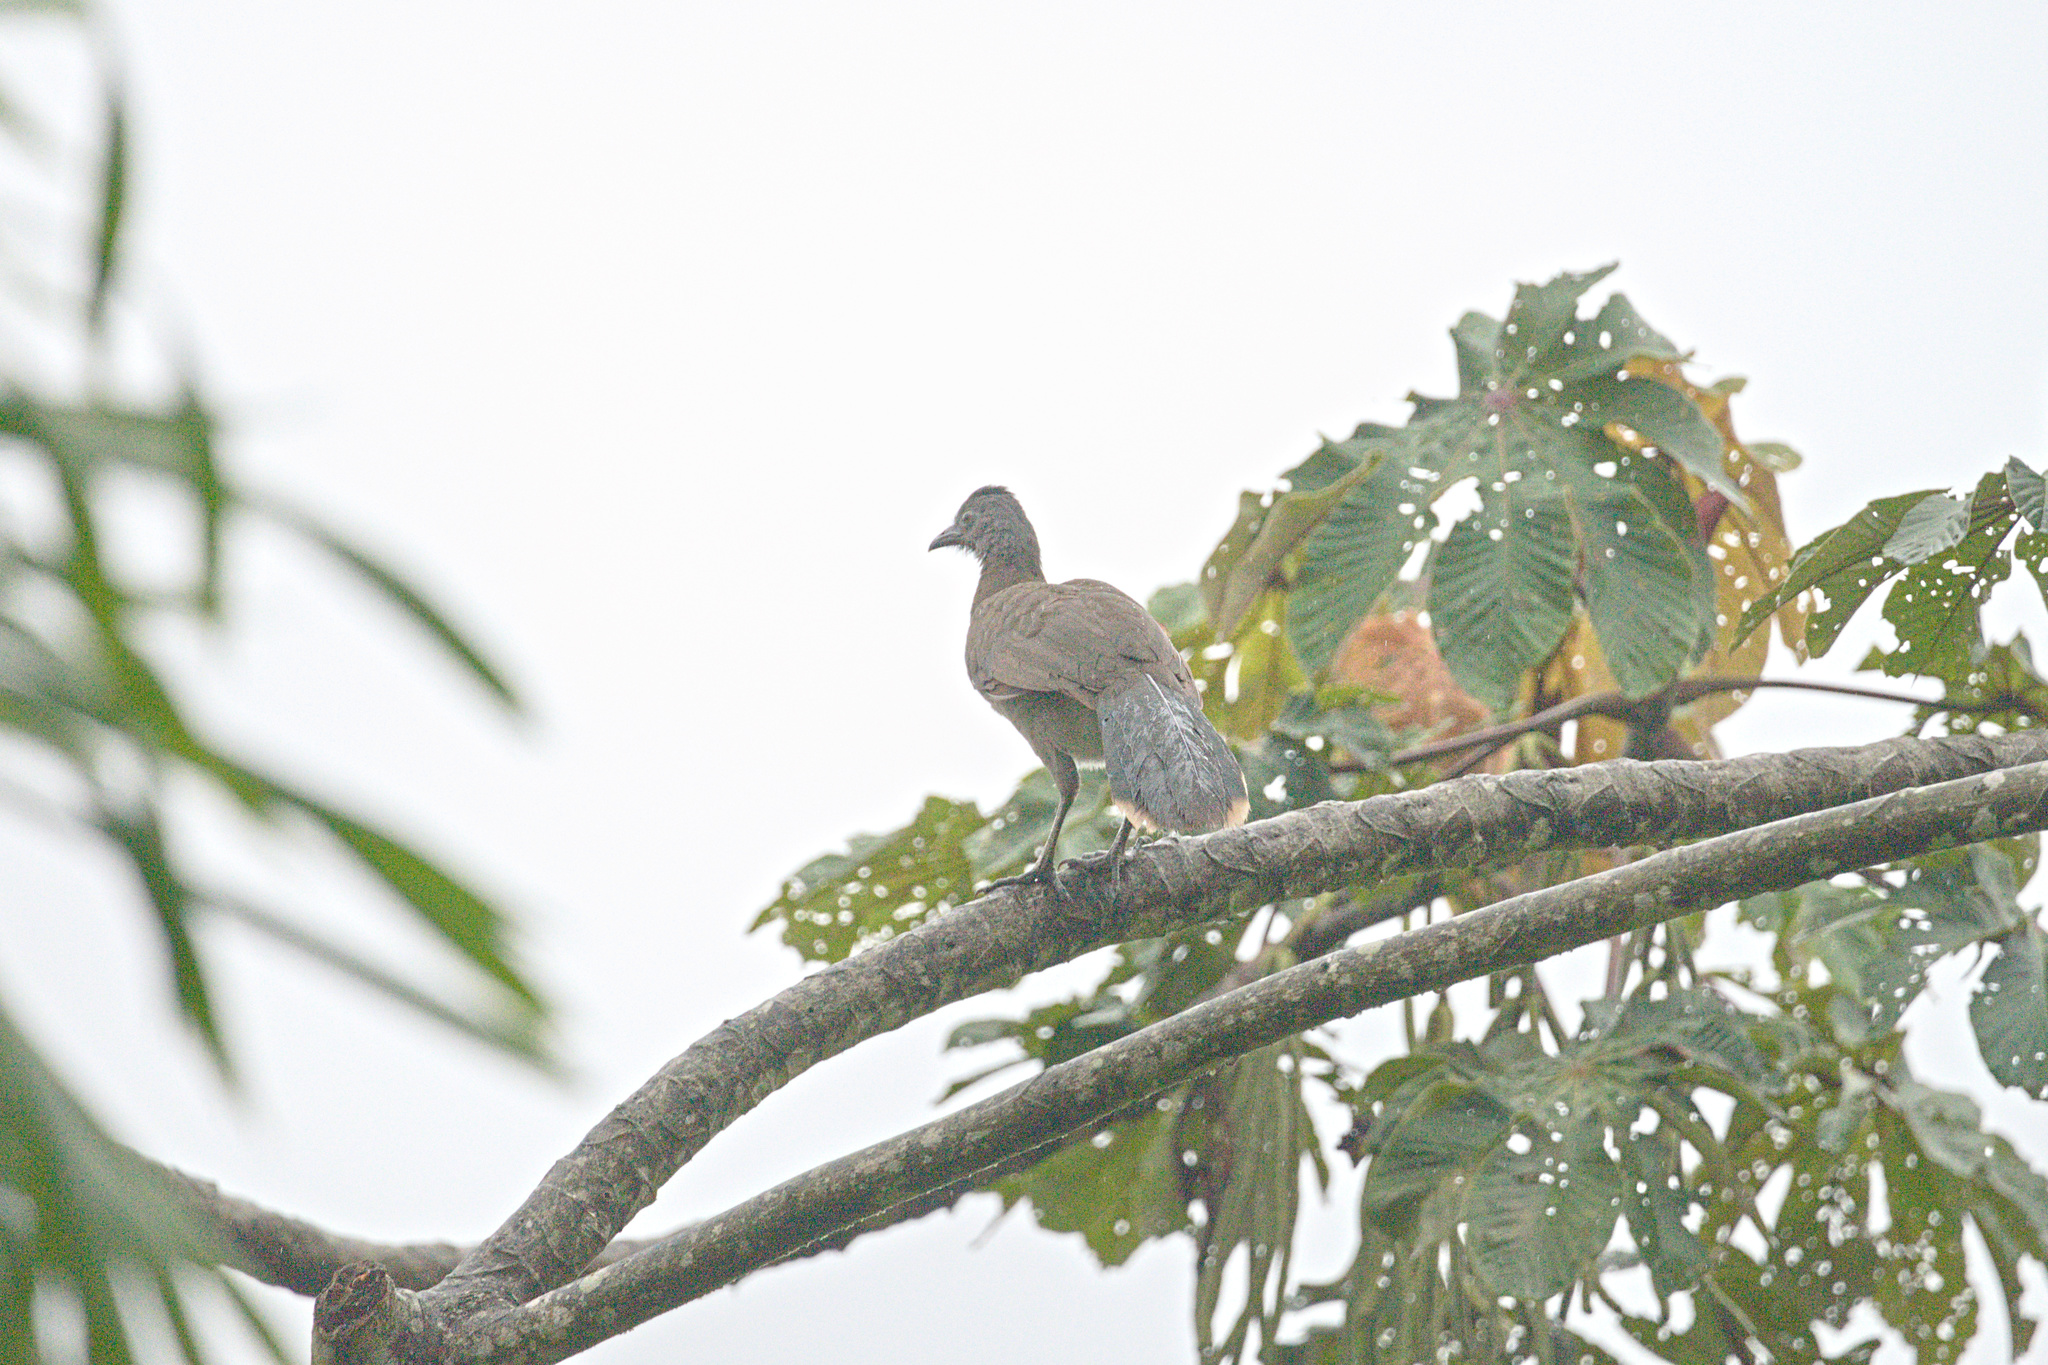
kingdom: Animalia
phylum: Chordata
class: Aves
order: Galliformes
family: Cracidae
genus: Ortalis
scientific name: Ortalis cinereiceps
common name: Grey-headed chachalaca
